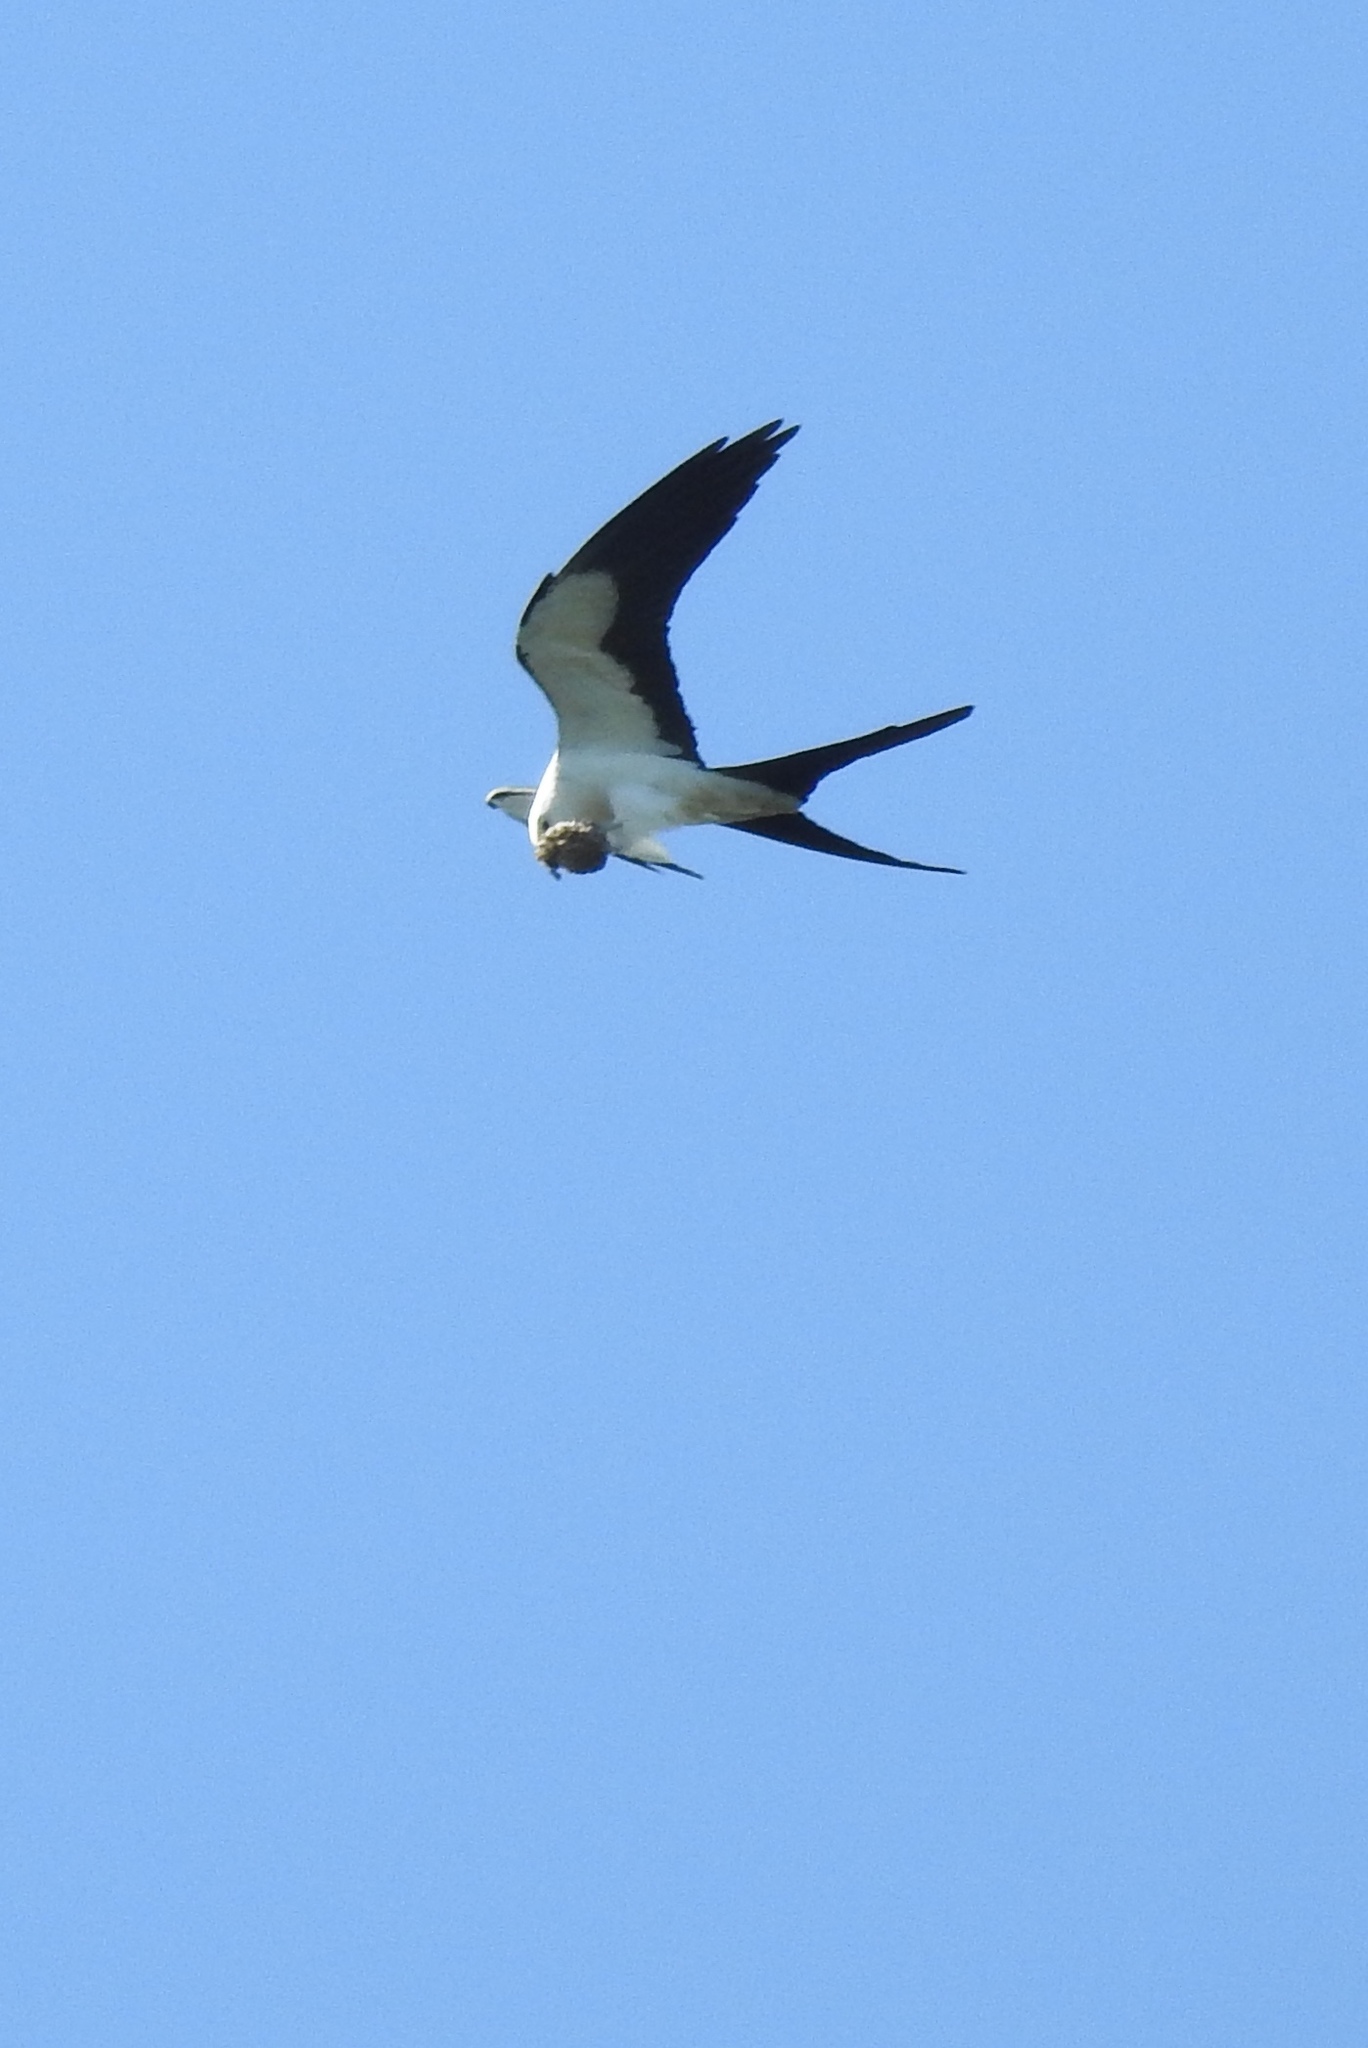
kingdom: Animalia
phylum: Chordata
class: Aves
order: Accipitriformes
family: Accipitridae
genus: Elanoides
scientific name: Elanoides forficatus
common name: Swallow-tailed kite
